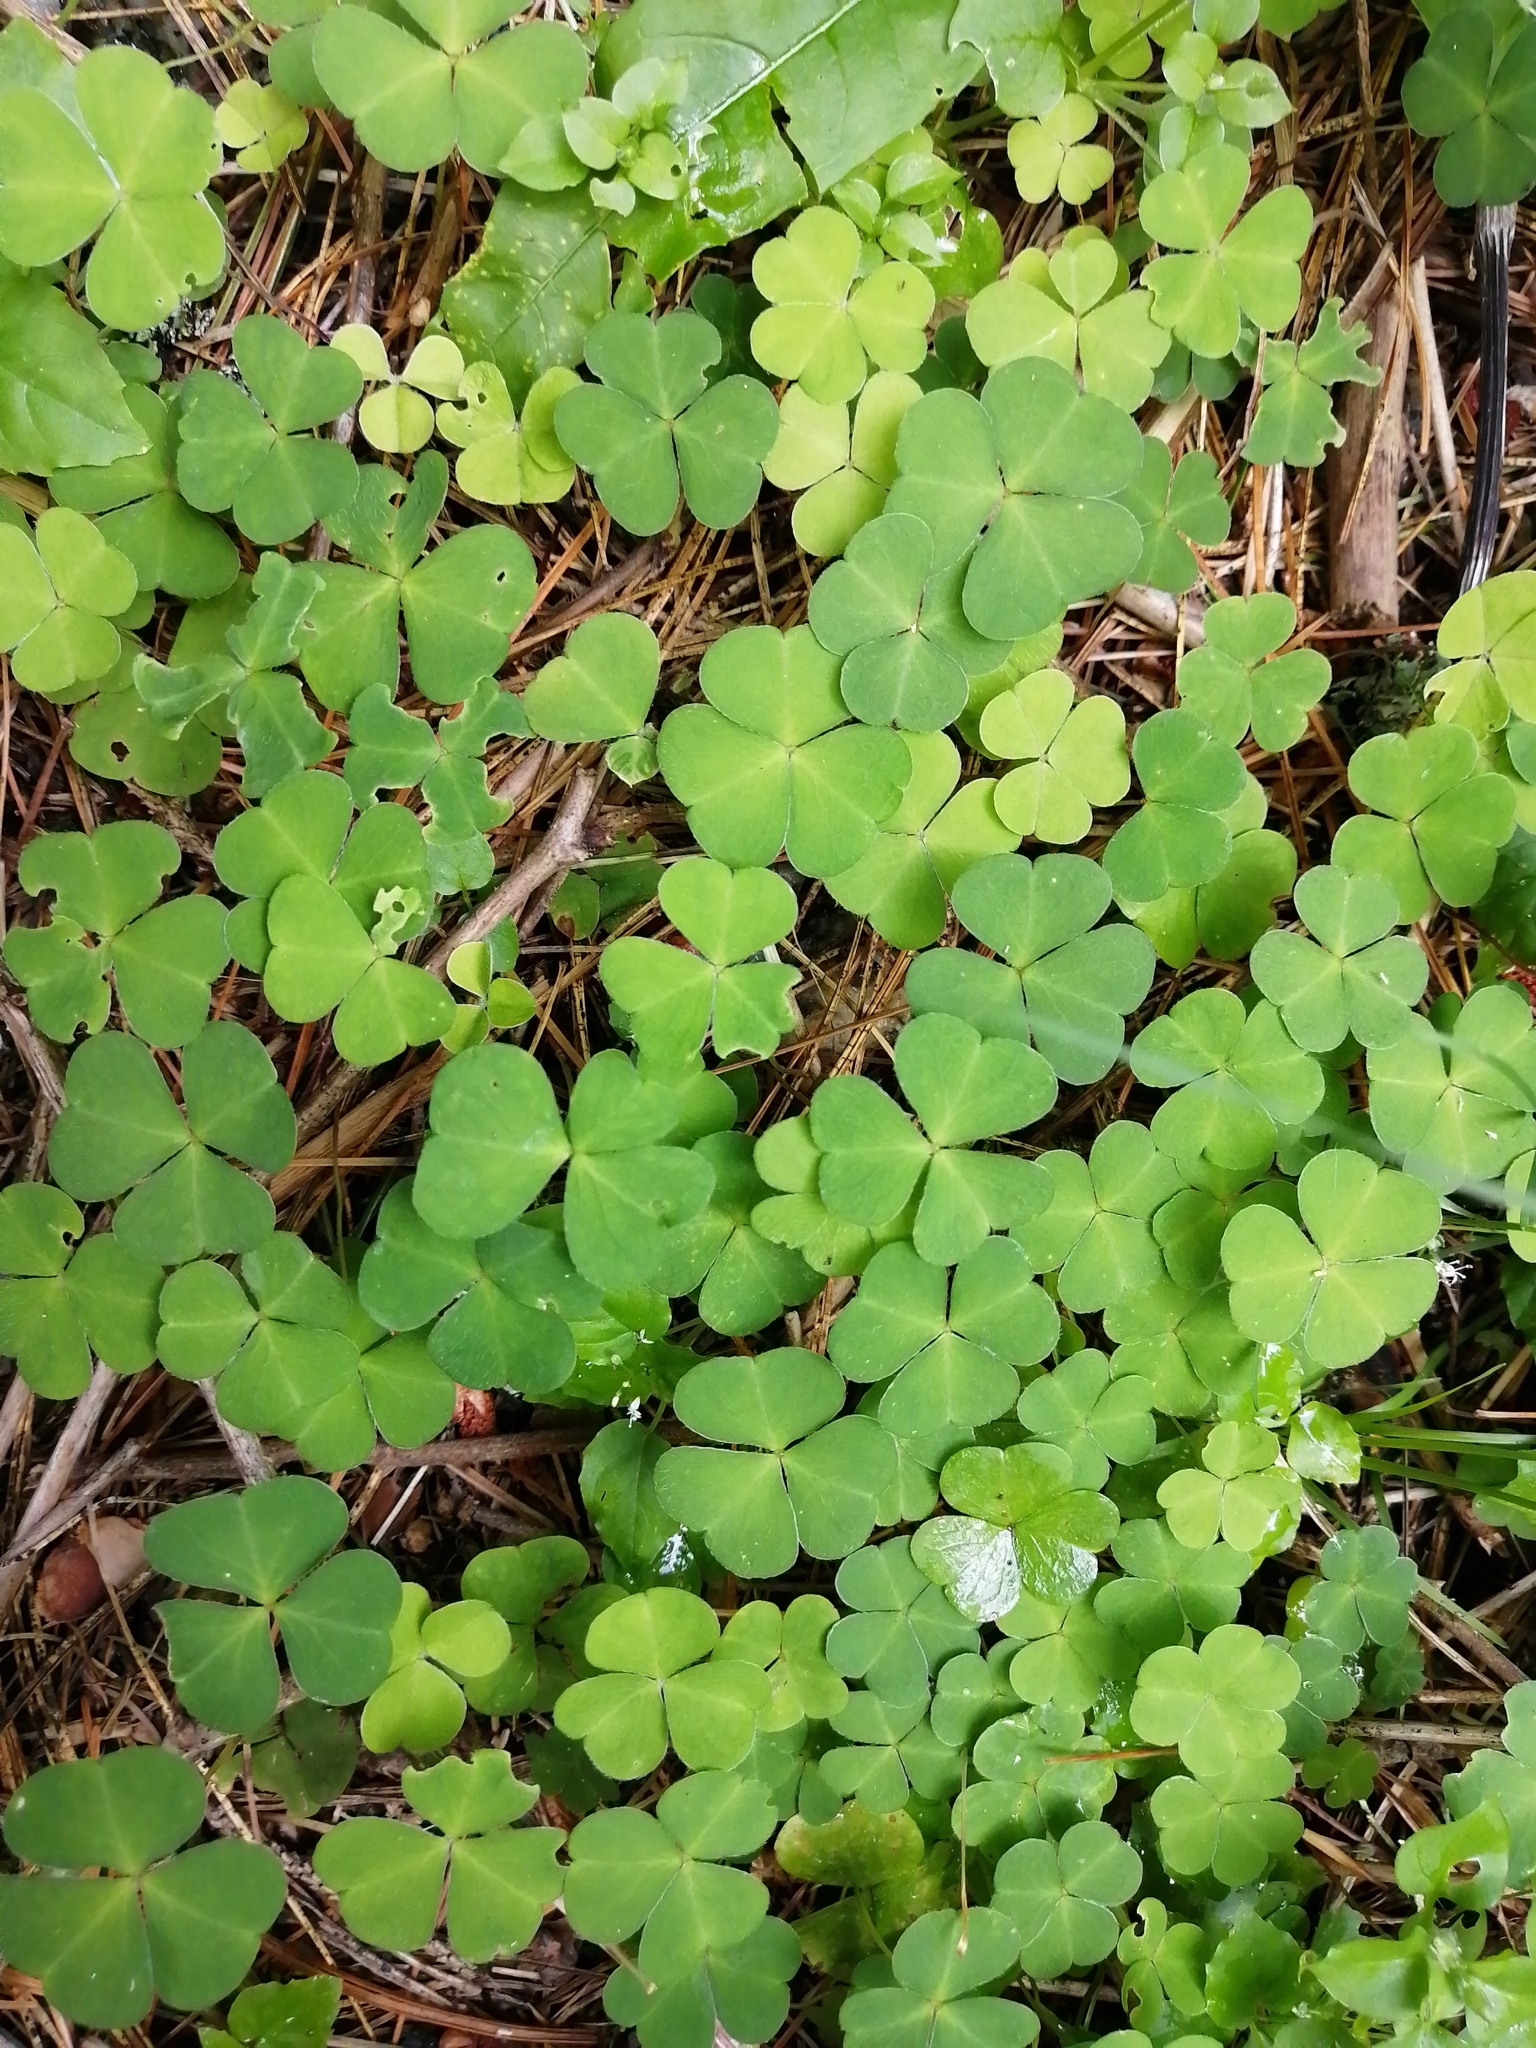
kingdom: Plantae
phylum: Tracheophyta
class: Magnoliopsida
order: Oxalidales
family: Oxalidaceae
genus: Oxalis
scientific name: Oxalis acetosella
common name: Wood-sorrel
